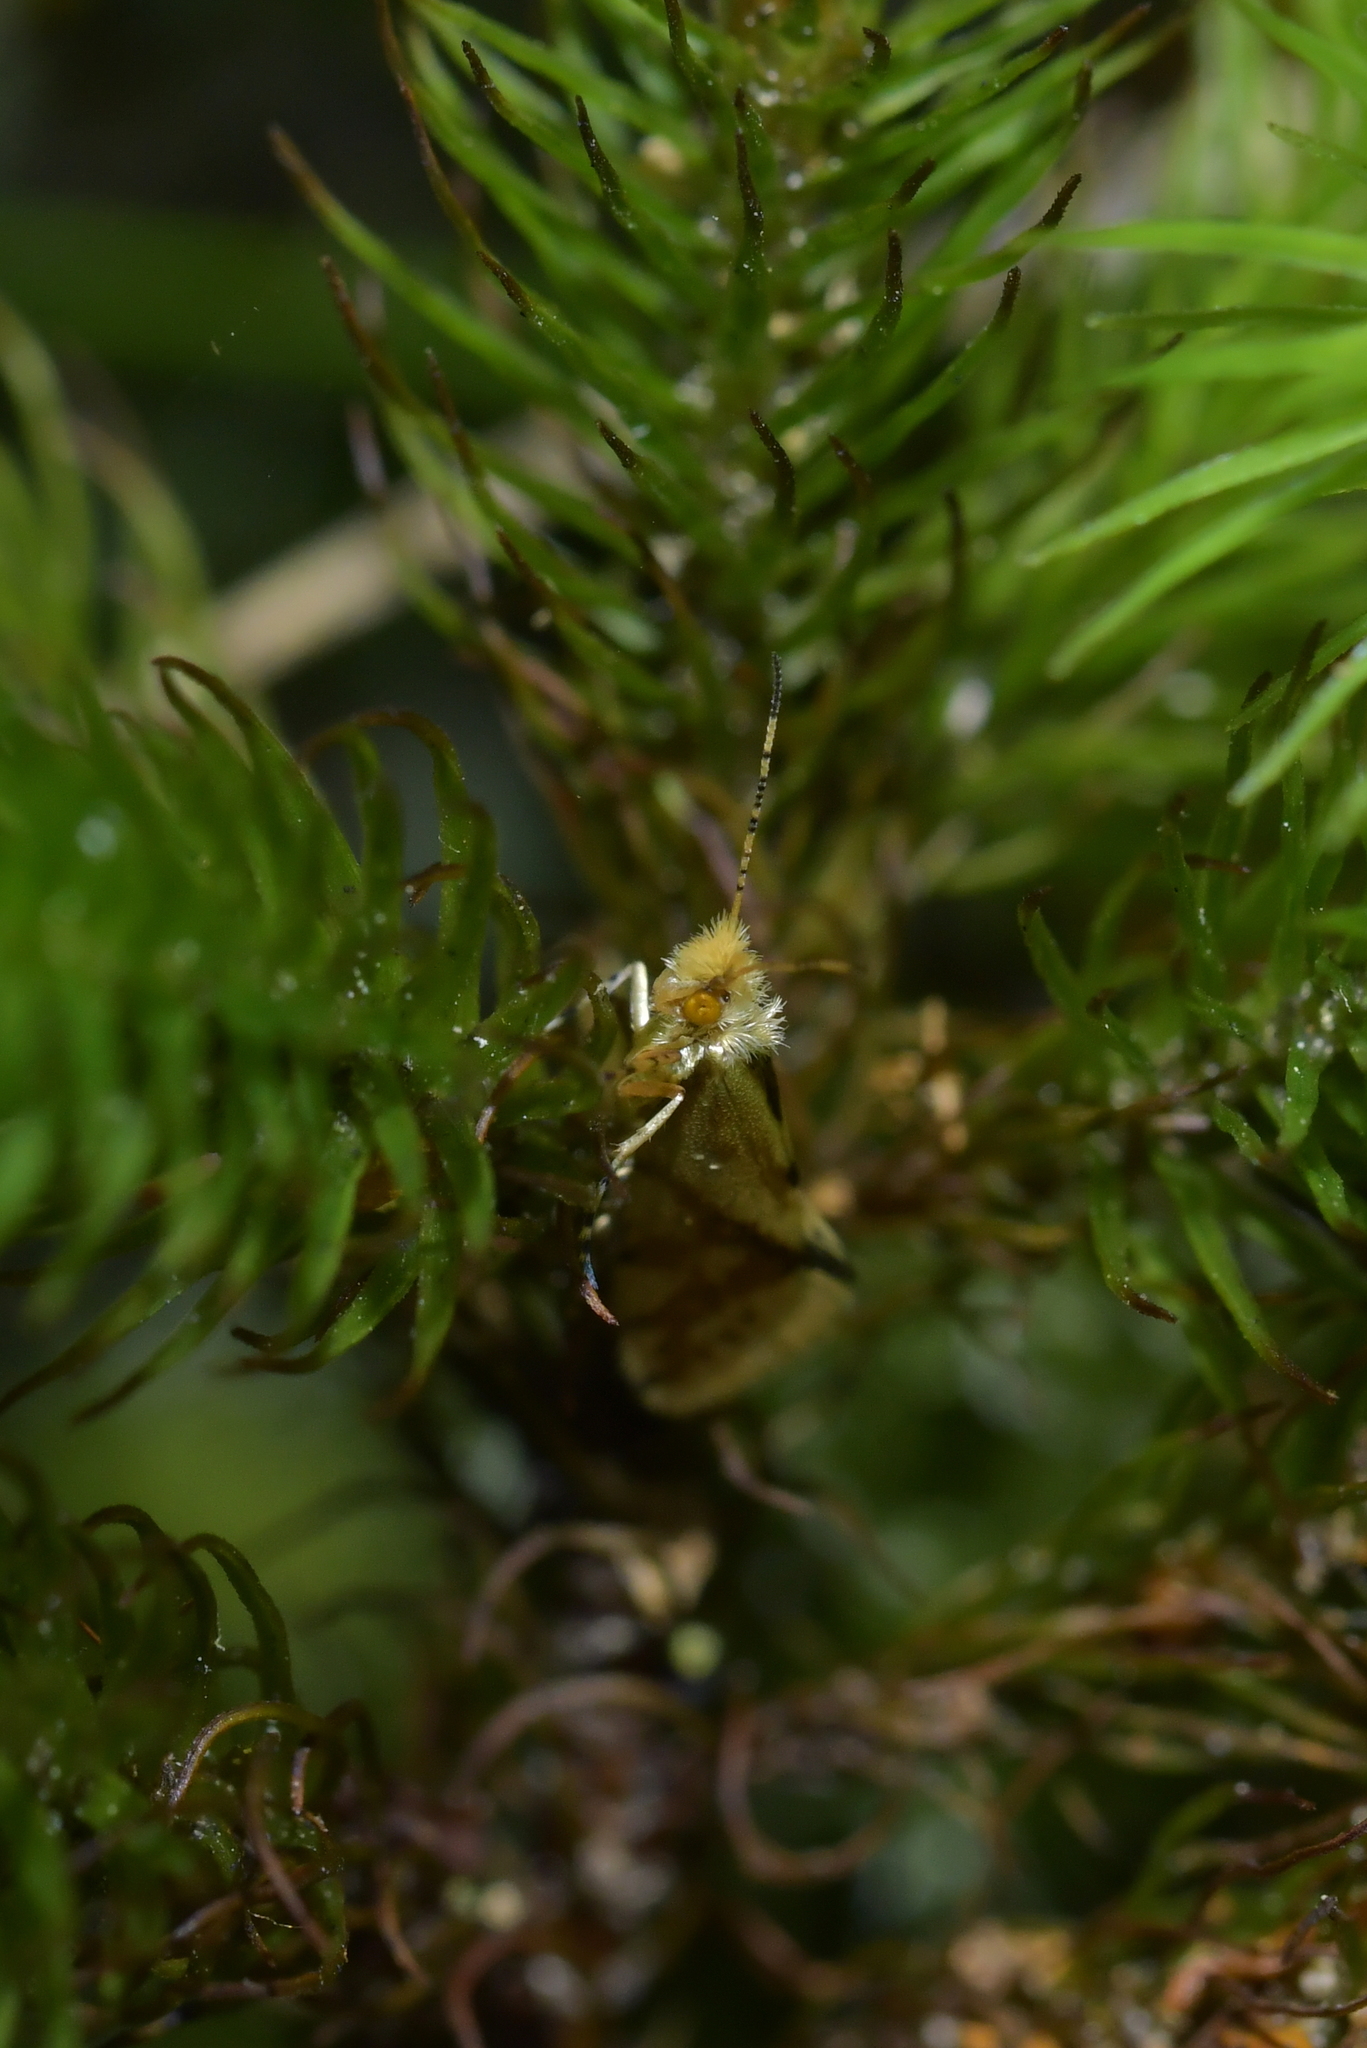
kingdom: Animalia
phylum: Arthropoda
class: Insecta
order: Lepidoptera
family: Micropterigidae
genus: Sabatinca
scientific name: Sabatinca chalcophanes
